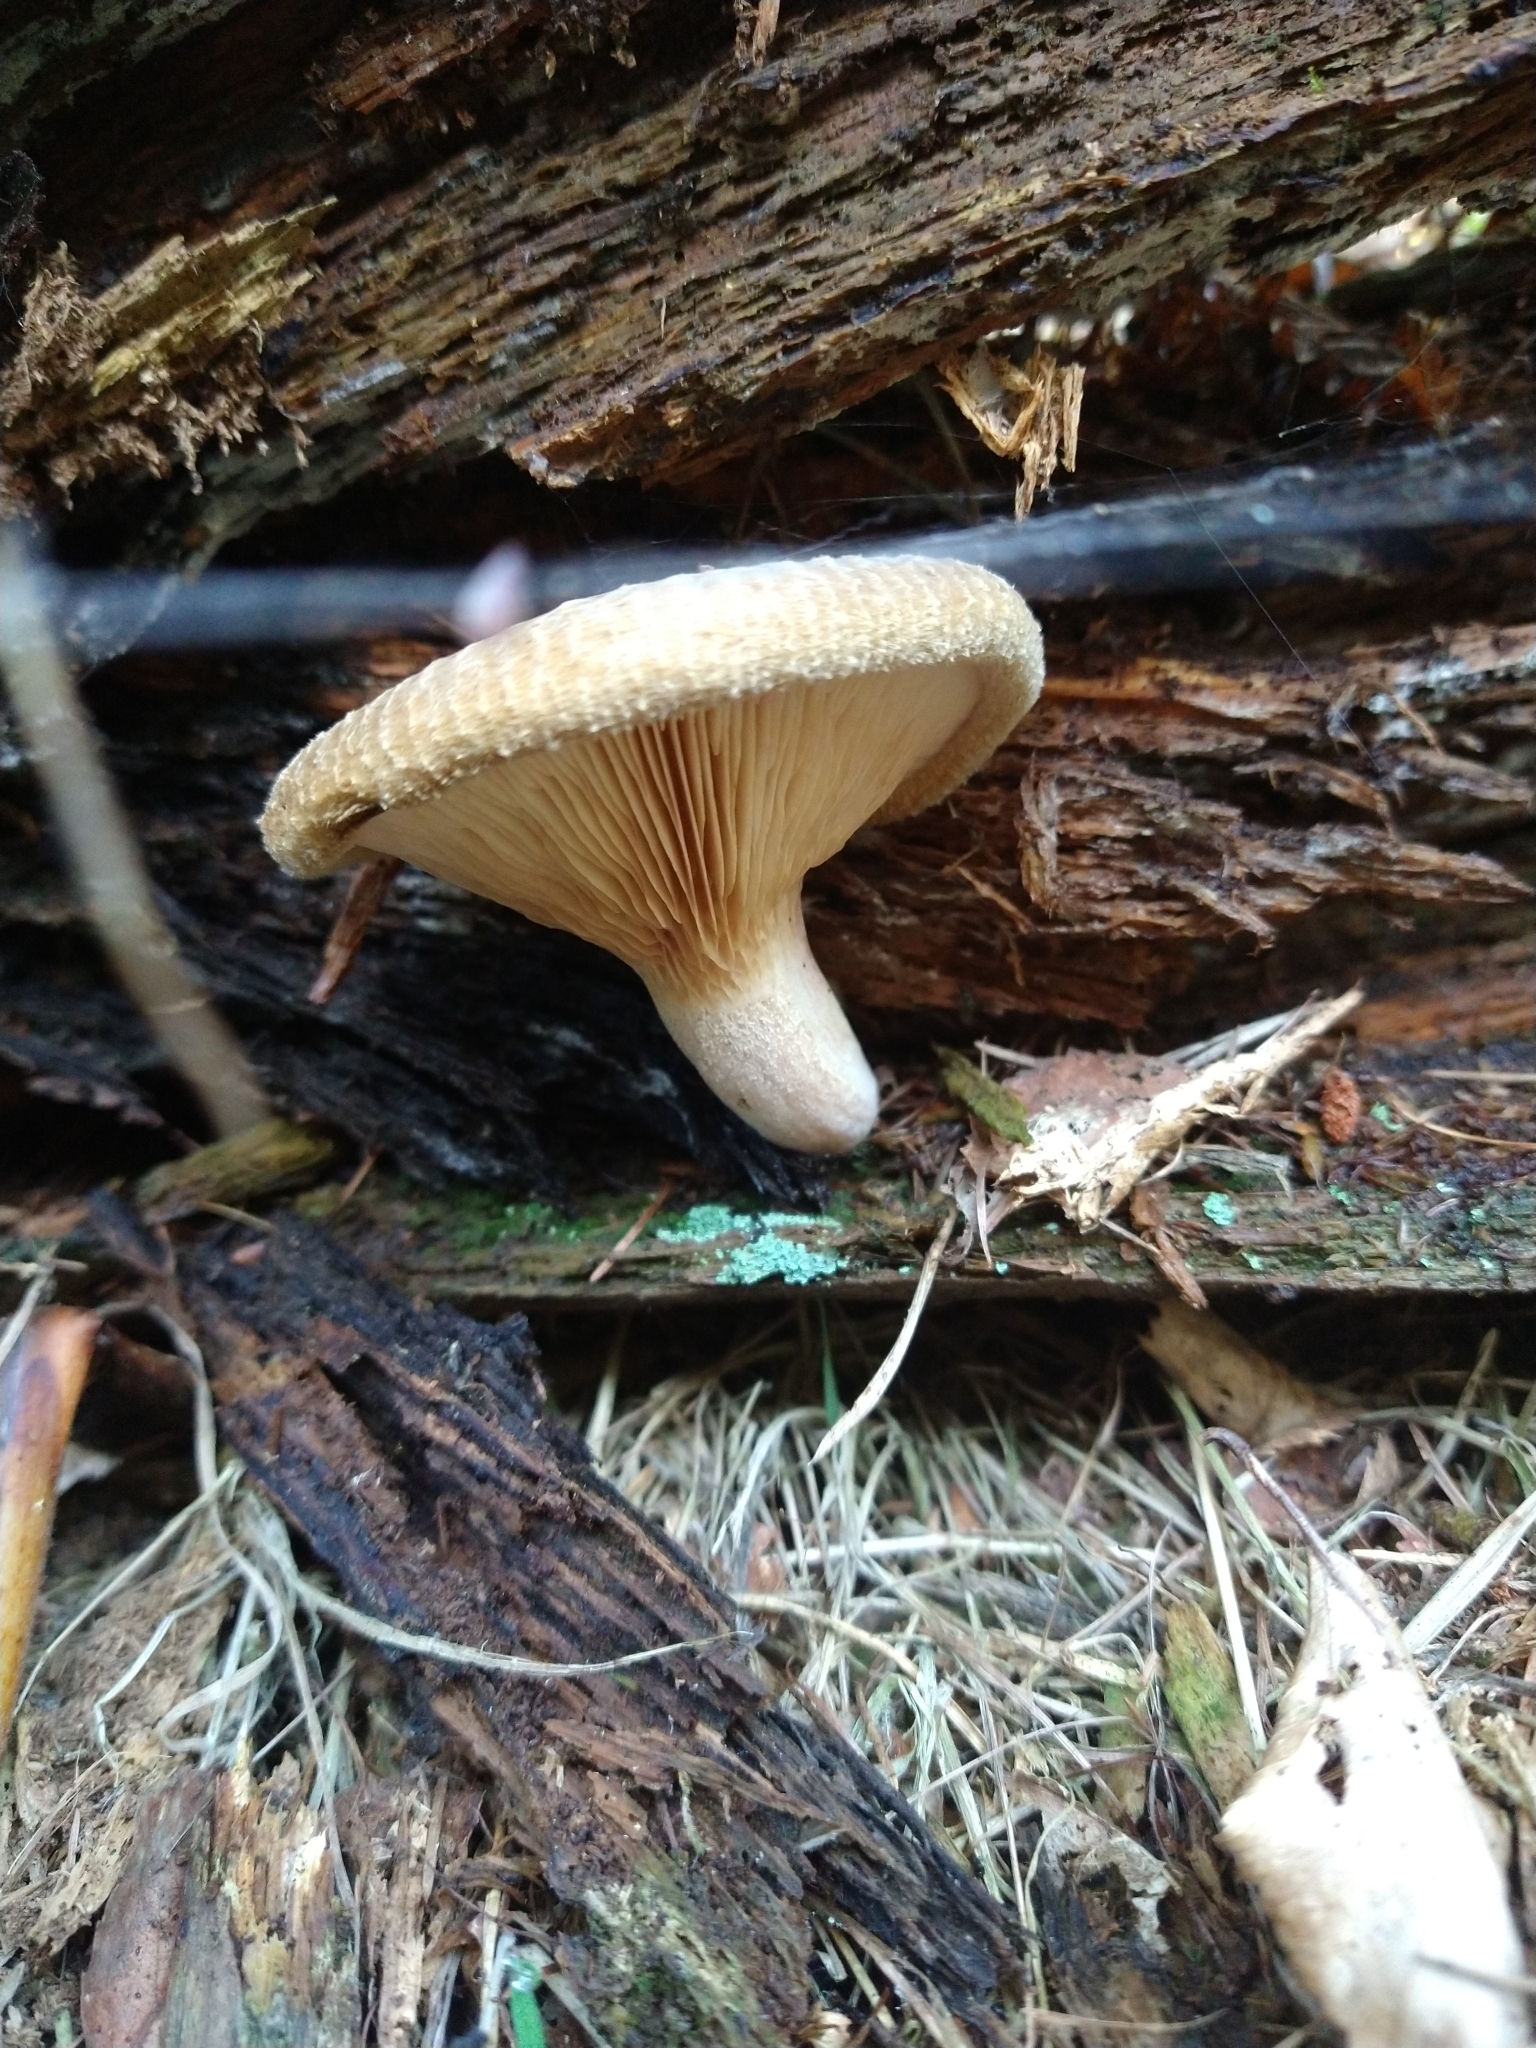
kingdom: Fungi
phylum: Basidiomycota
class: Agaricomycetes
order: Boletales
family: Paxillaceae
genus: Paxillus
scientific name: Paxillus involutus
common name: Brown roll rim
